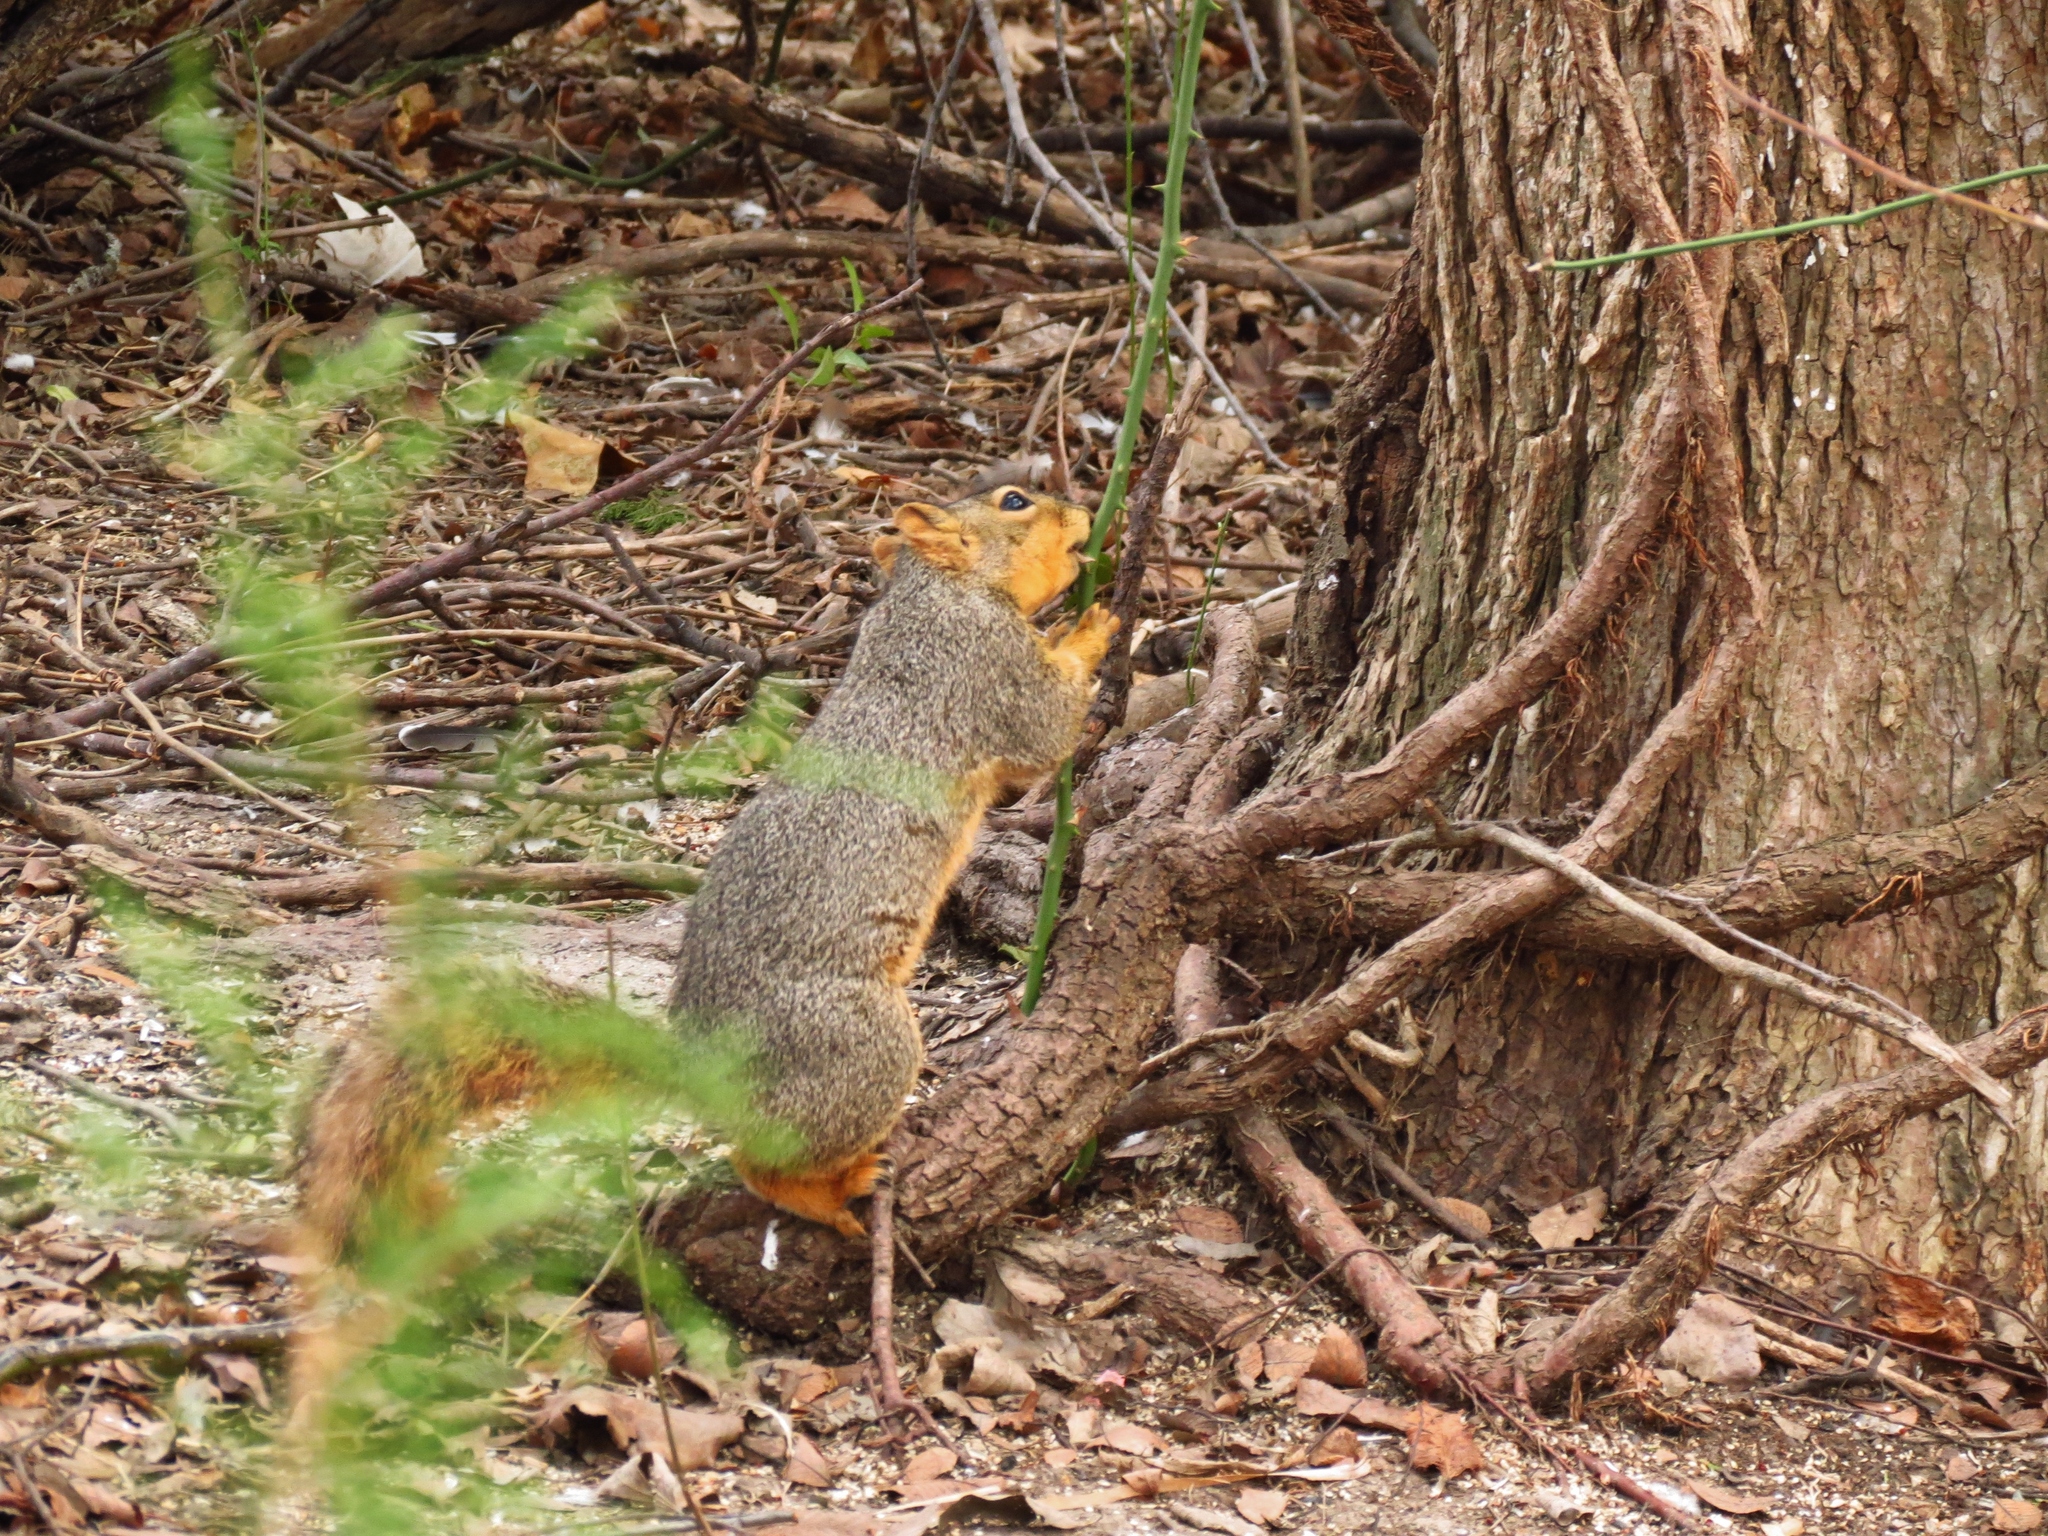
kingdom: Animalia
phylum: Chordata
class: Mammalia
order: Rodentia
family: Sciuridae
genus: Sciurus
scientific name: Sciurus niger
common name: Fox squirrel
